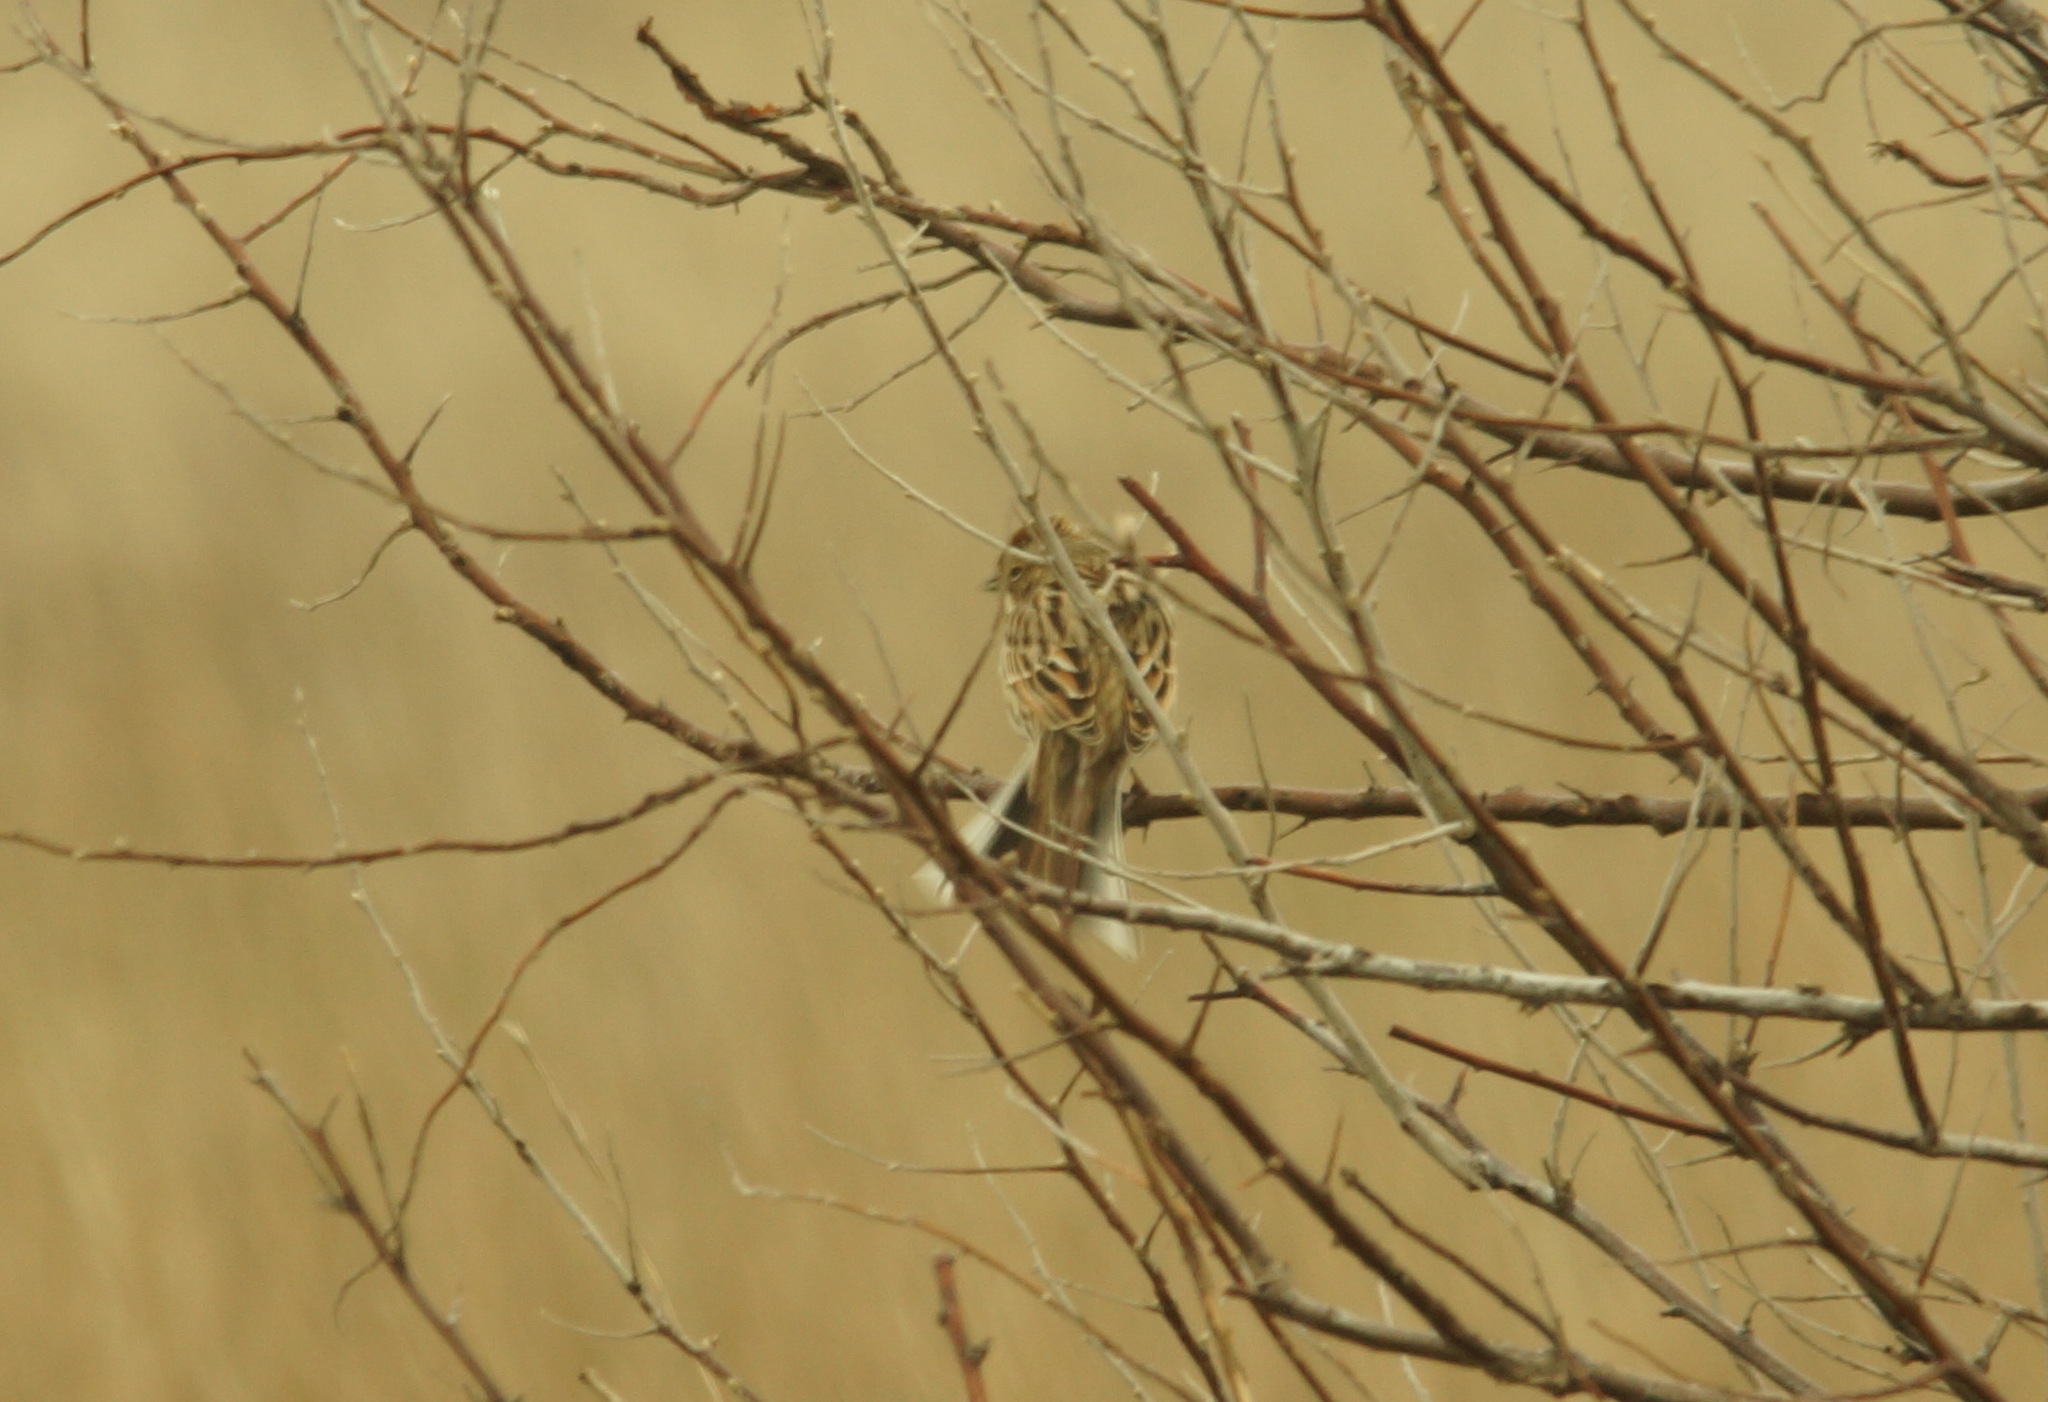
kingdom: Animalia
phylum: Chordata
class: Aves
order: Passeriformes
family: Emberizidae
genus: Emberiza
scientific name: Emberiza schoeniclus
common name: Reed bunting
